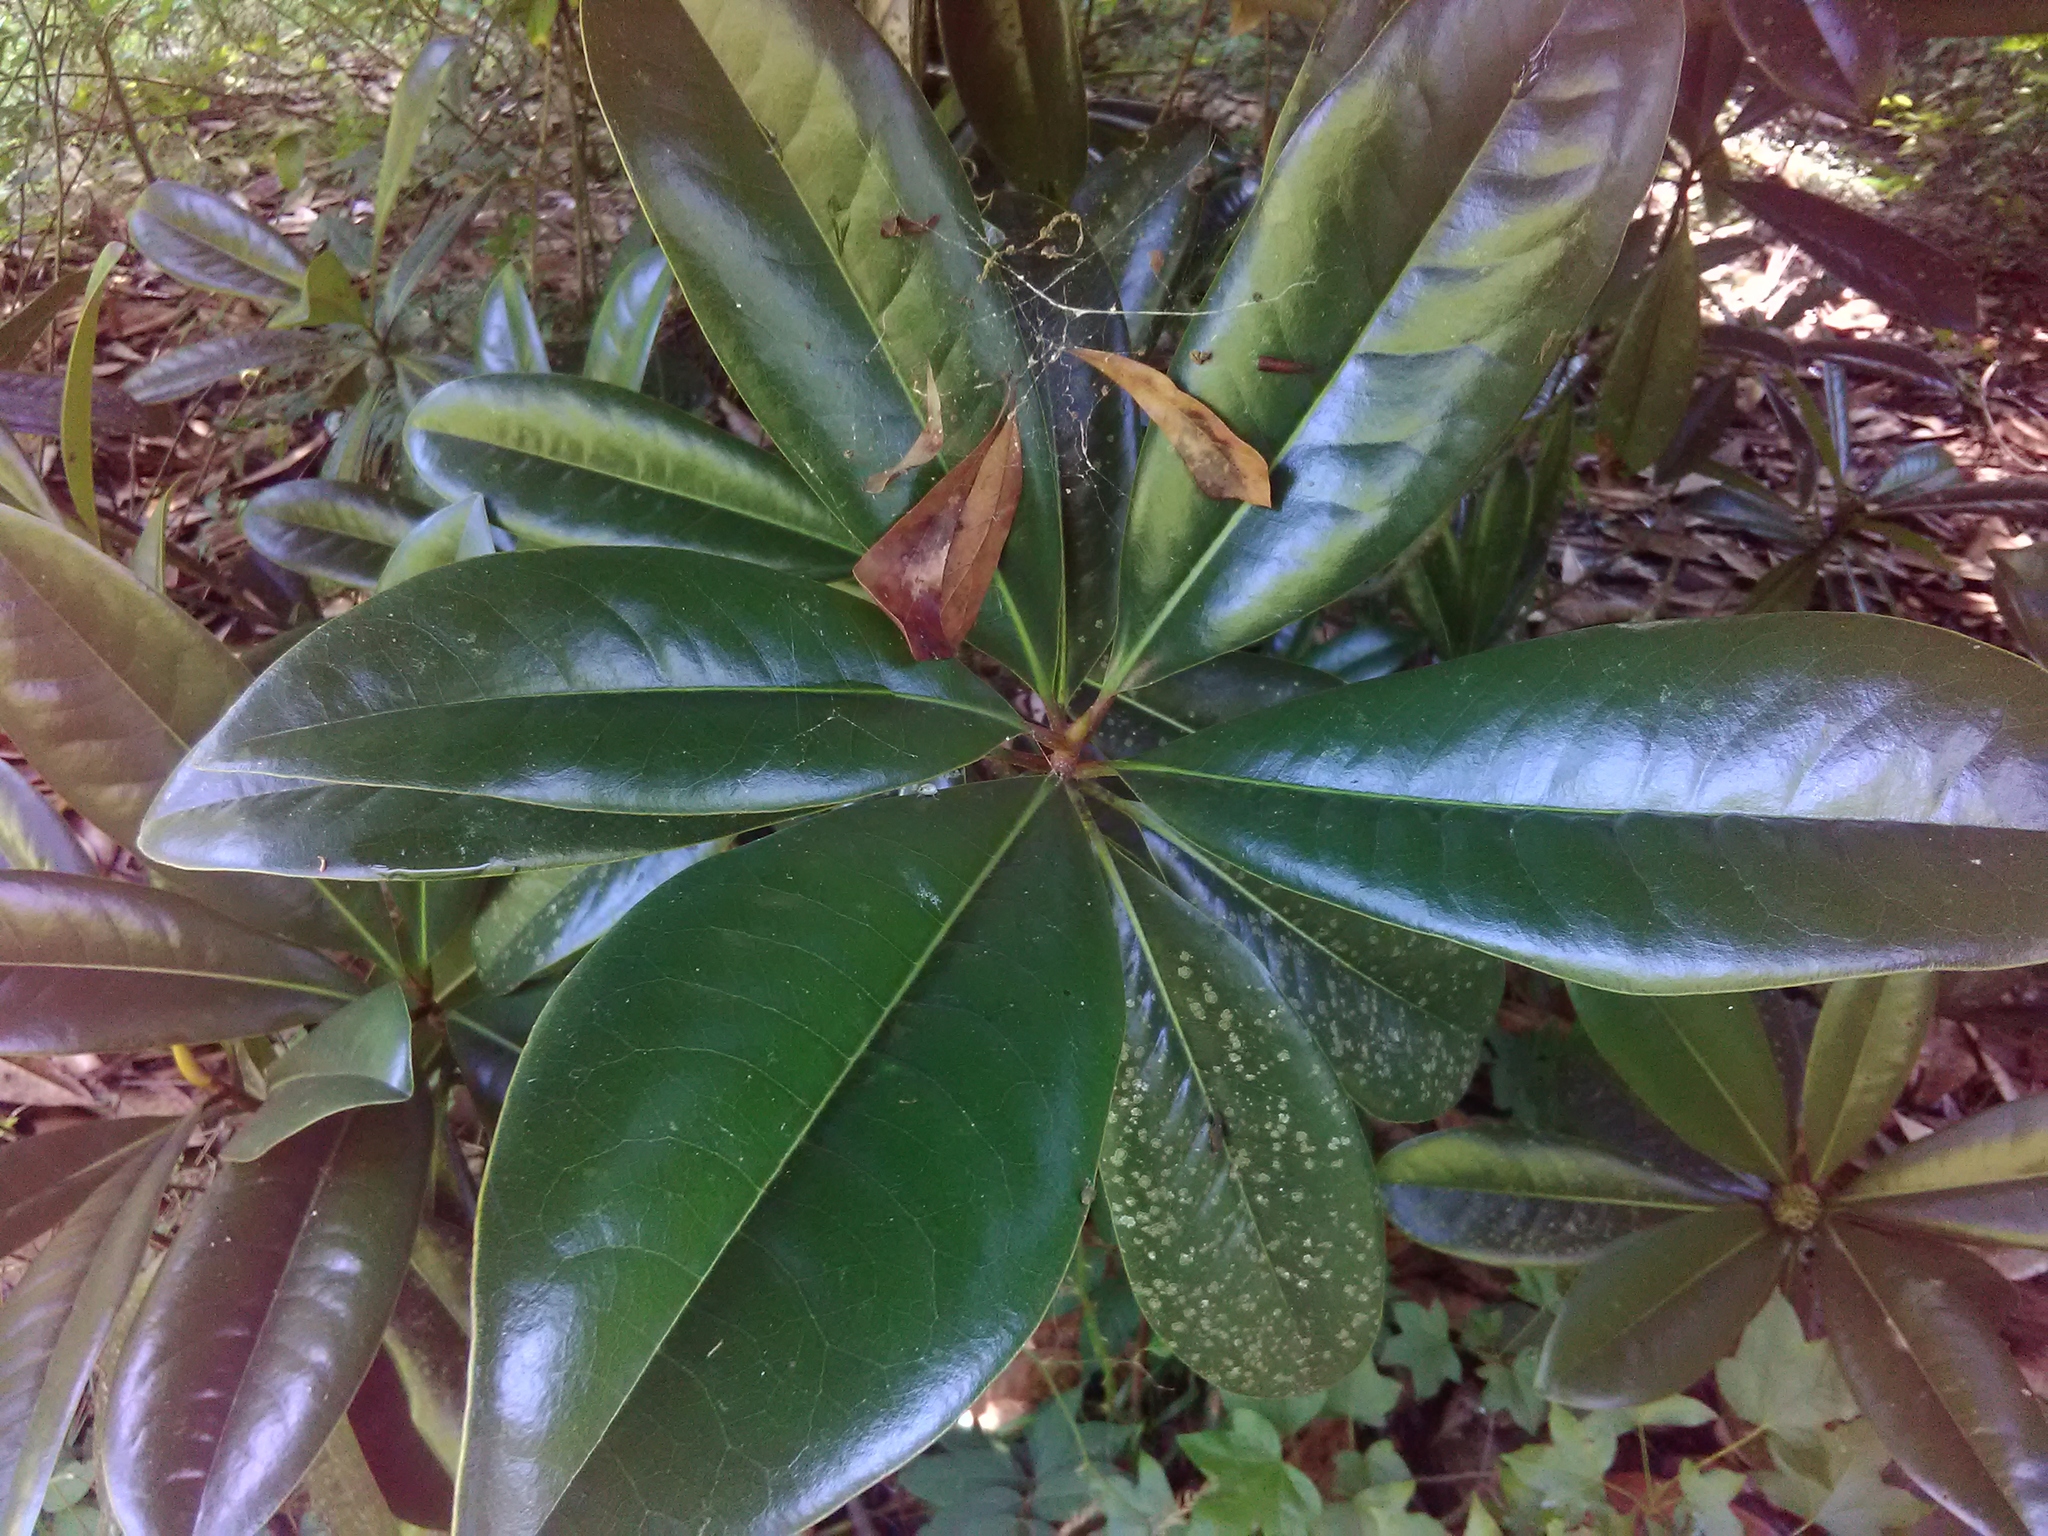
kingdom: Plantae
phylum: Tracheophyta
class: Magnoliopsida
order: Magnoliales
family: Magnoliaceae
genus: Magnolia
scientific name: Magnolia grandiflora
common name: Southern magnolia
